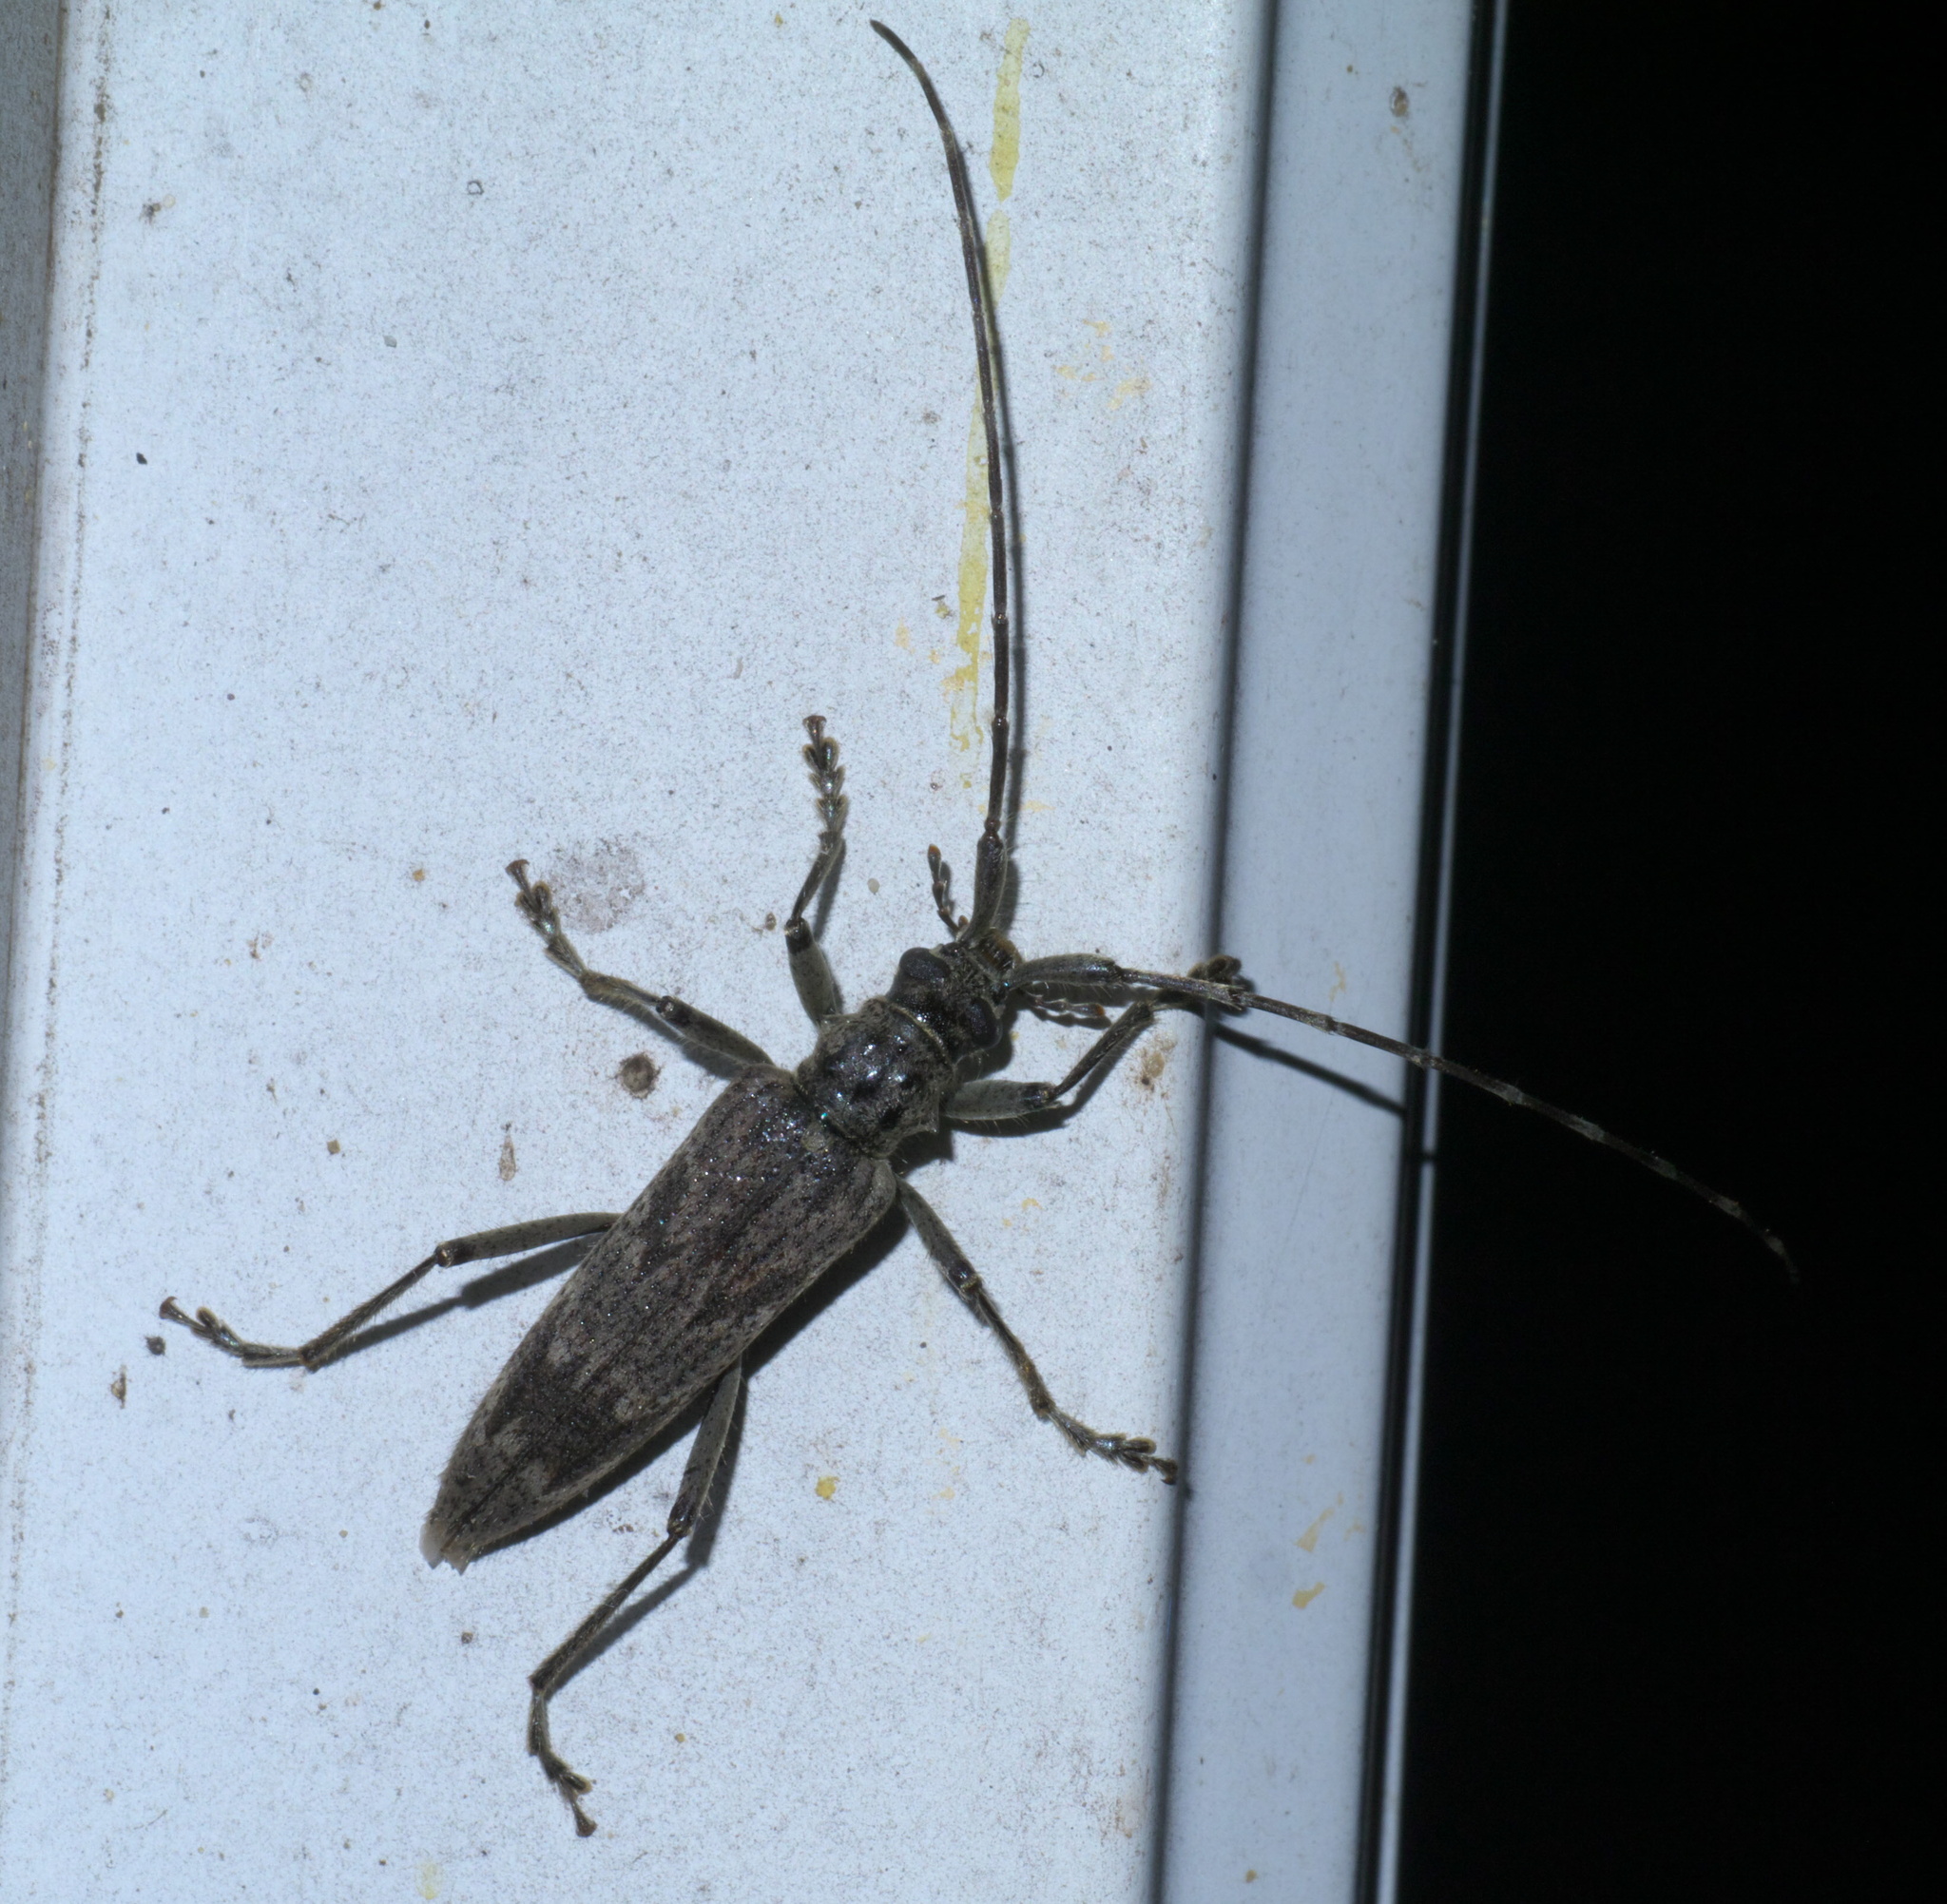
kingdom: Animalia
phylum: Arthropoda
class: Insecta
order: Coleoptera
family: Cerambycidae
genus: Elytrimitatrix
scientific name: Elytrimitatrix undata
